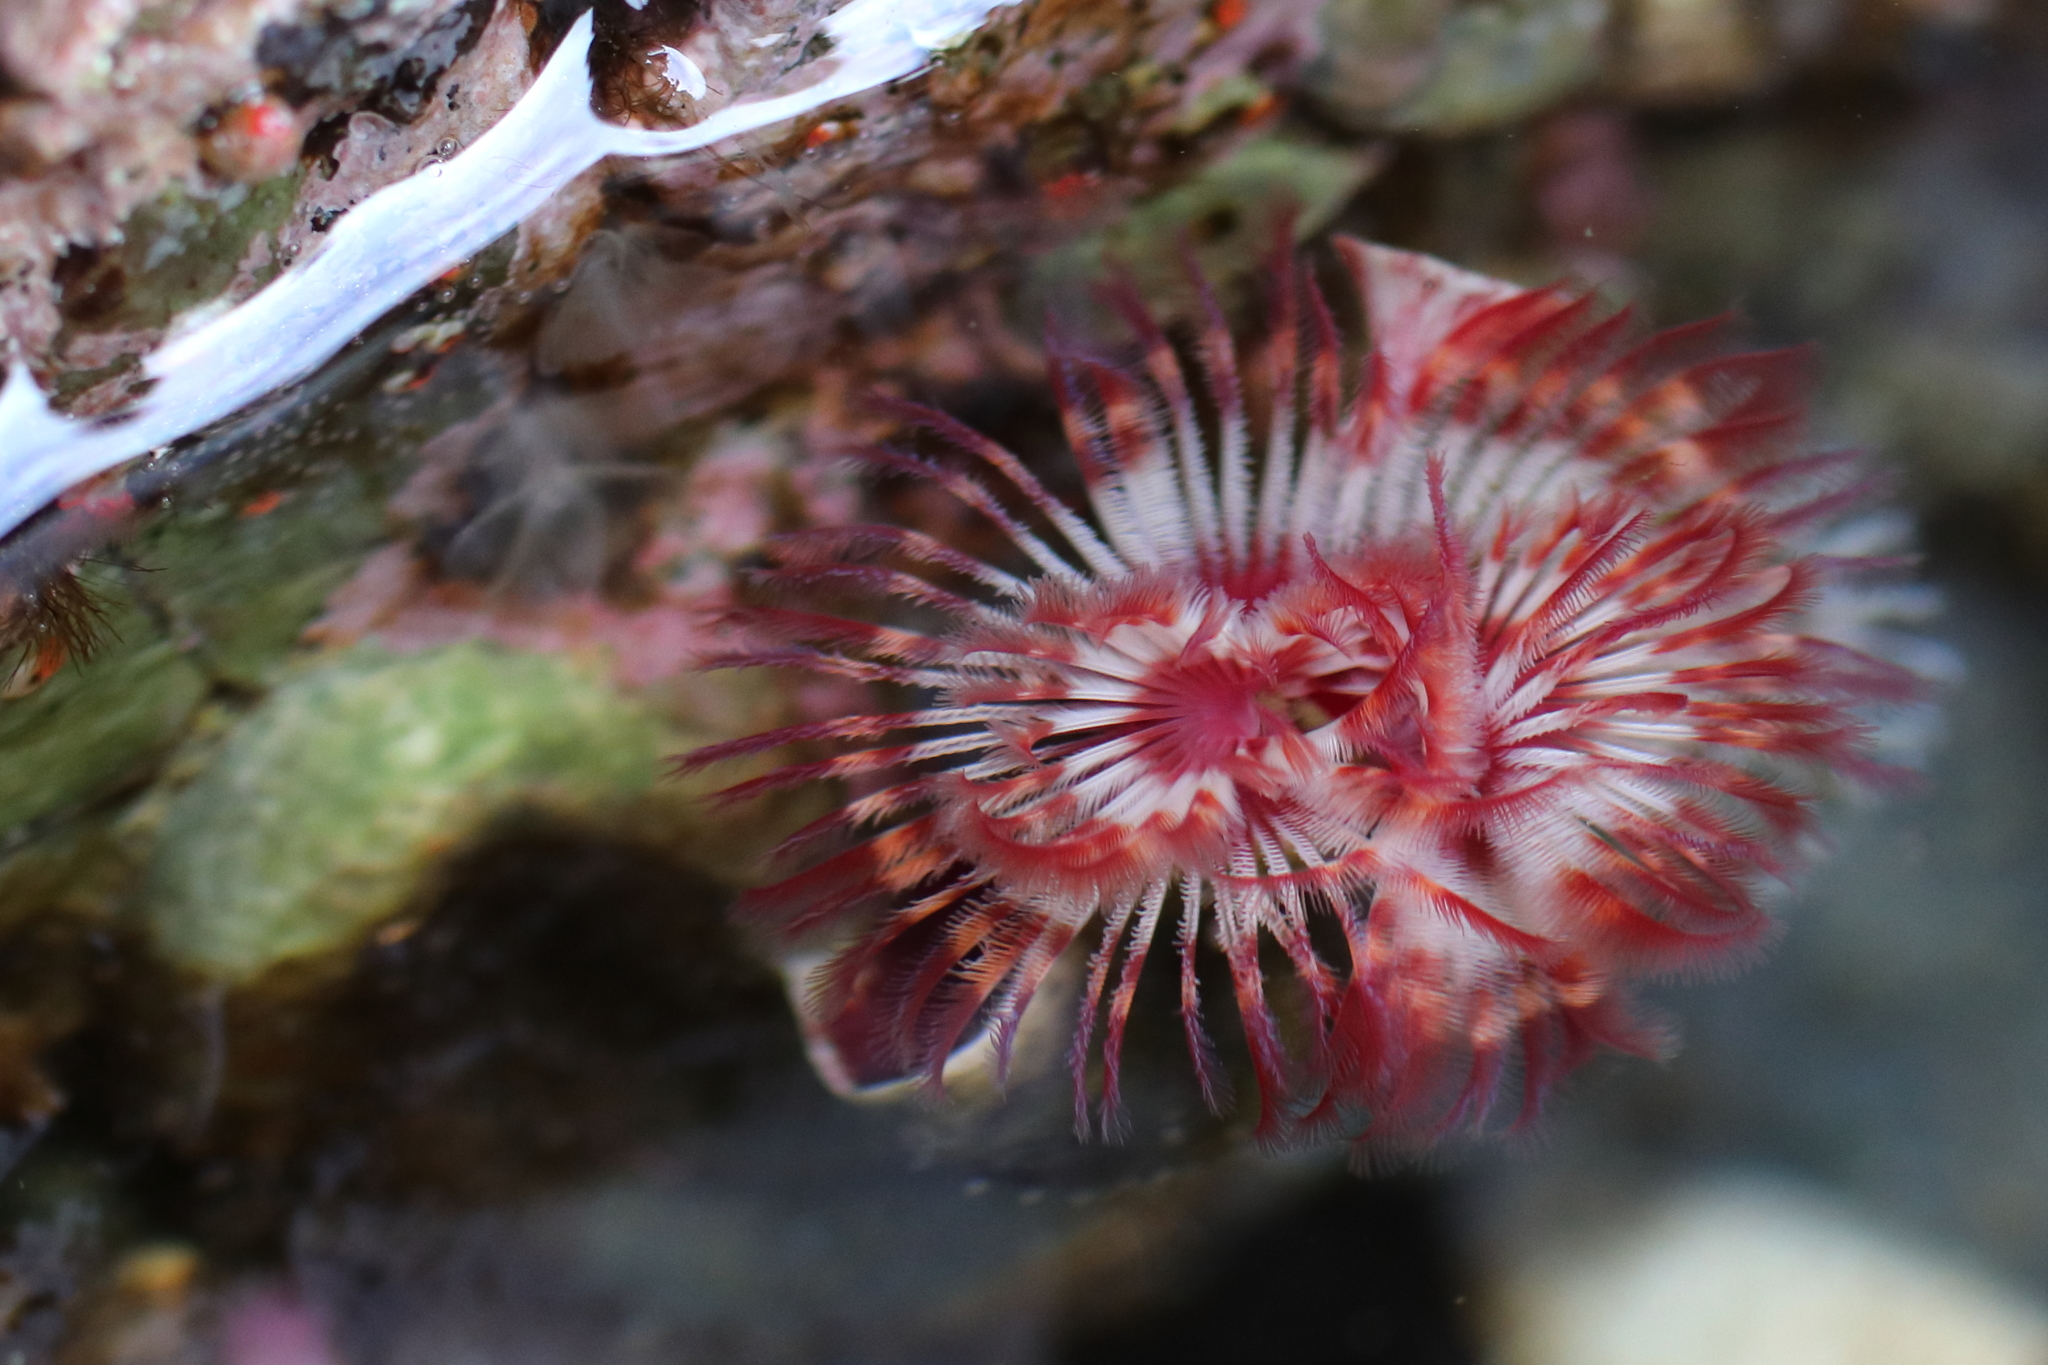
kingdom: Animalia
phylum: Annelida
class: Polychaeta
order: Sabellida
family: Serpulidae
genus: Serpula
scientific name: Serpula columbiana
